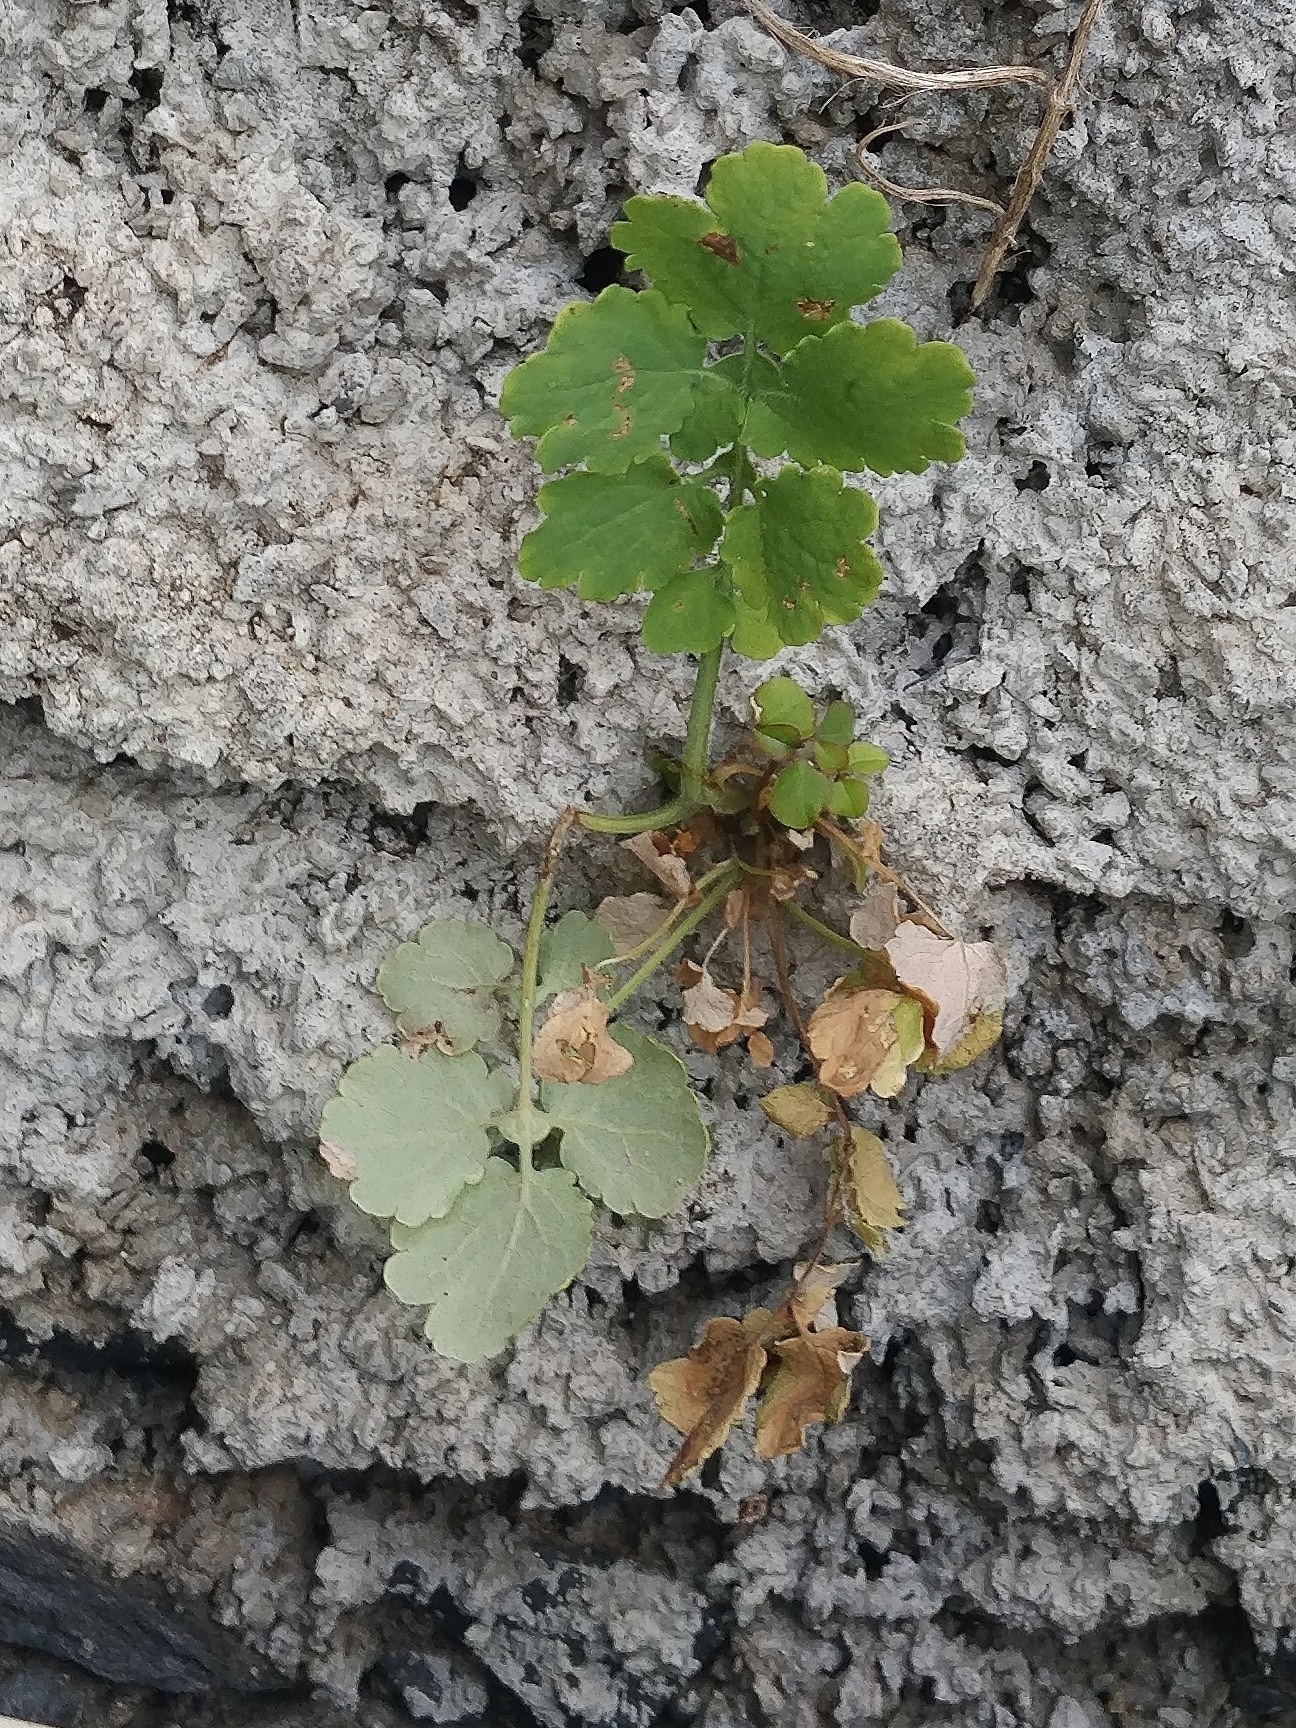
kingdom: Plantae
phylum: Tracheophyta
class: Magnoliopsida
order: Ranunculales
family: Papaveraceae
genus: Chelidonium
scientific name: Chelidonium majus
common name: Greater celandine
